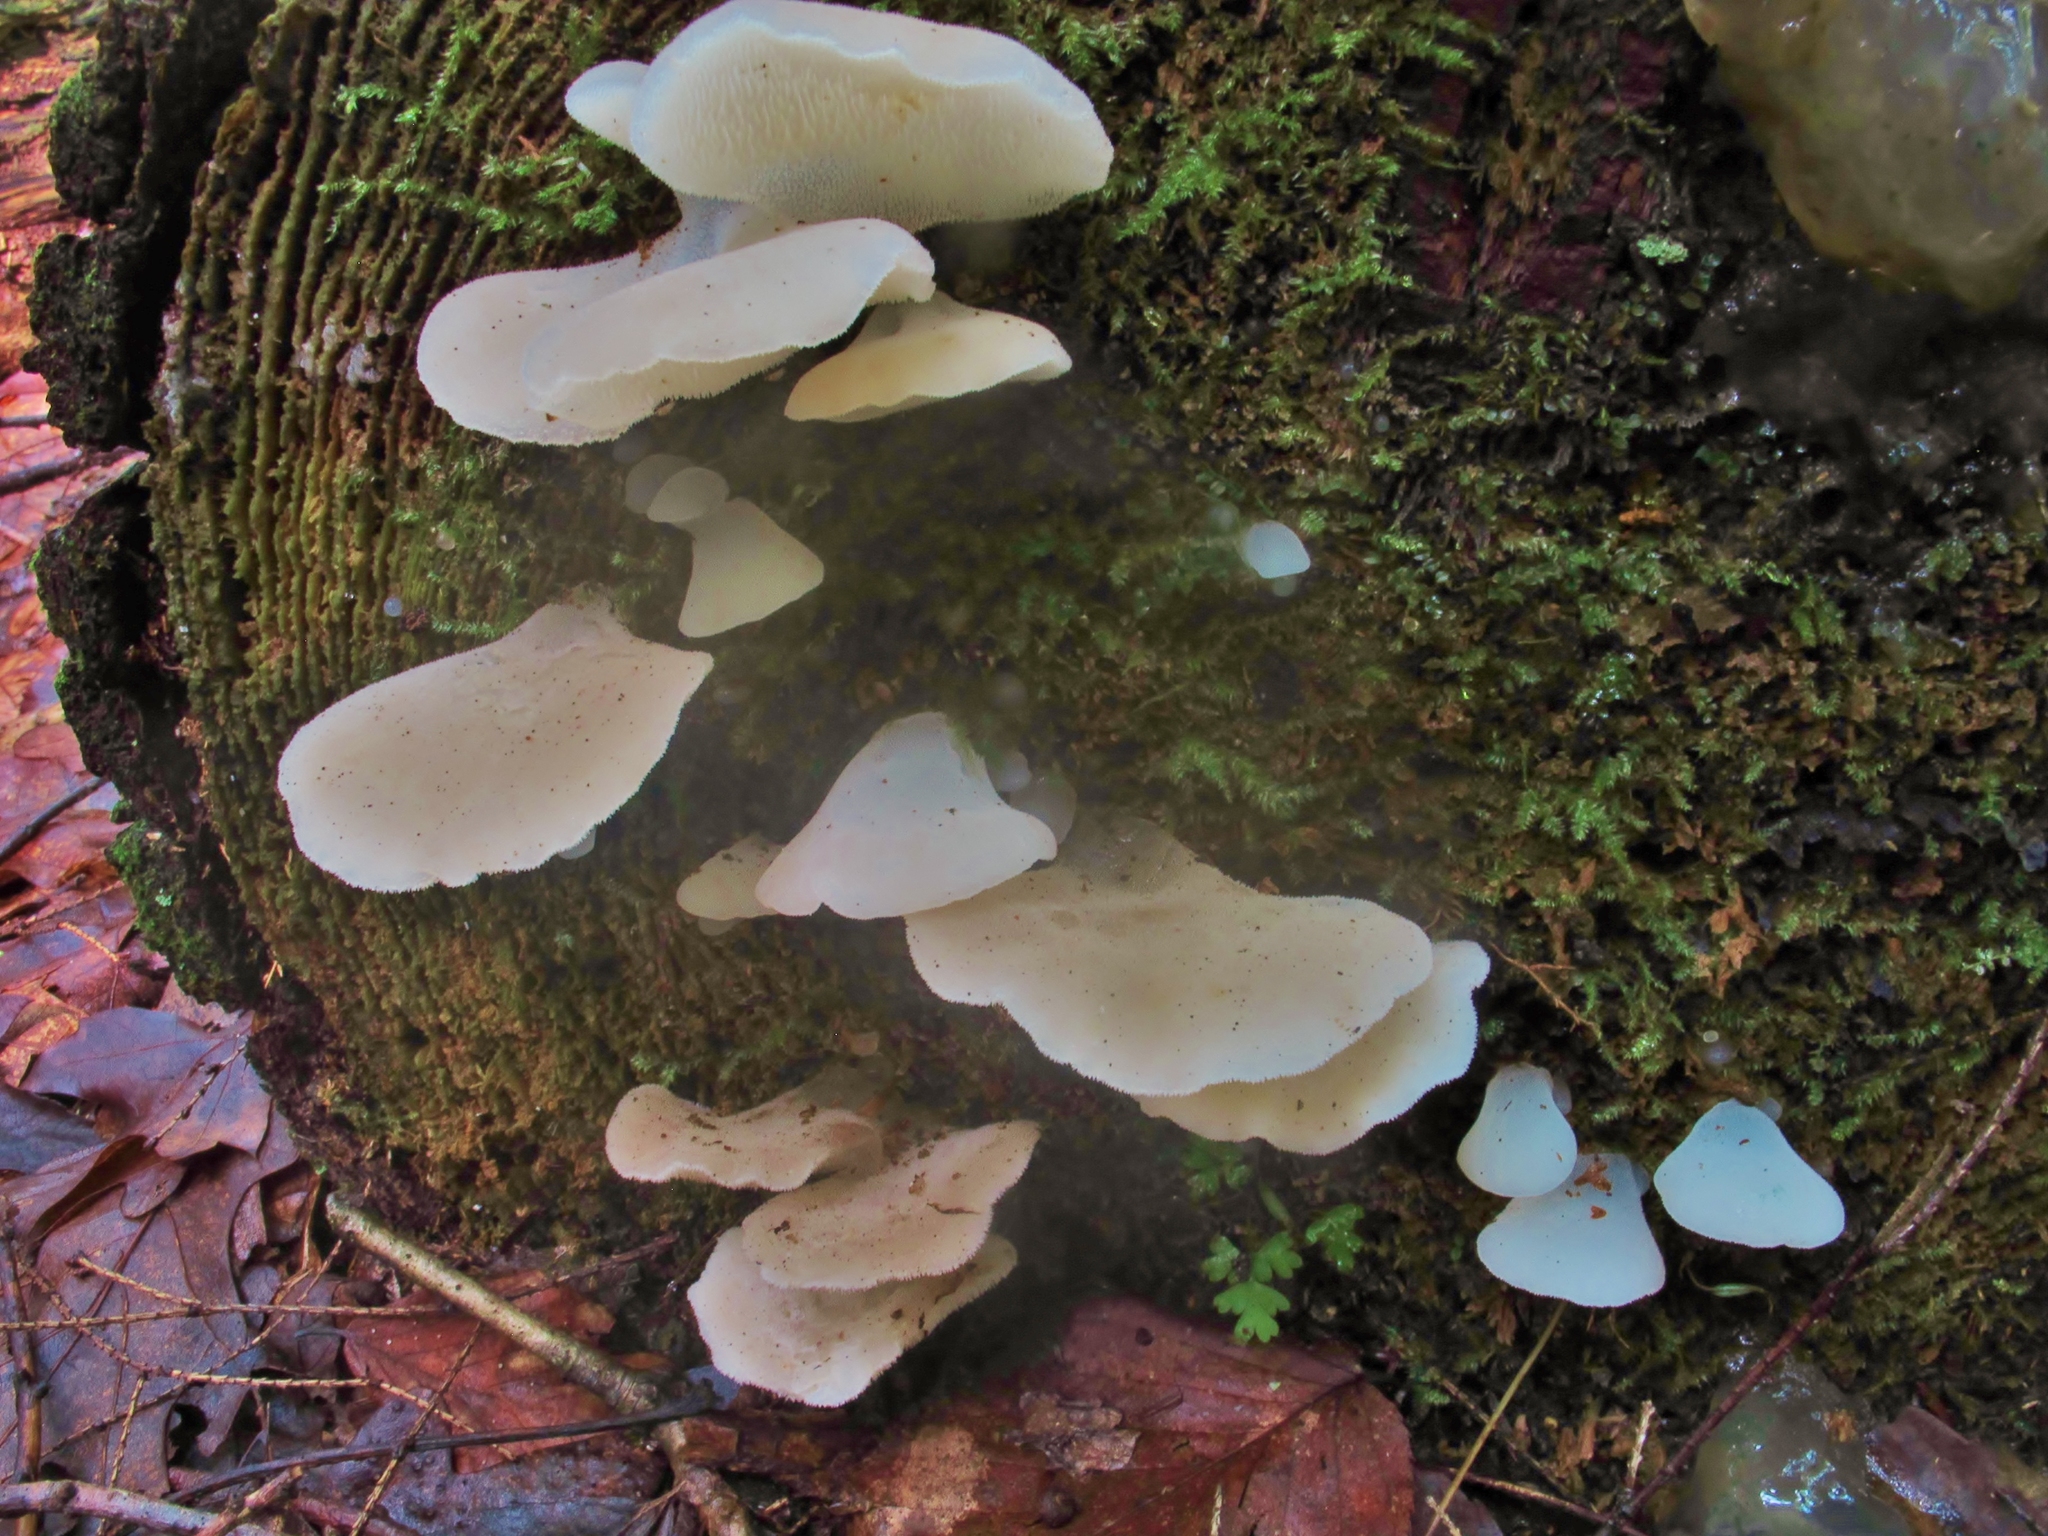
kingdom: Fungi
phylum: Basidiomycota
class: Agaricomycetes
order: Auriculariales
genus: Pseudohydnum
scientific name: Pseudohydnum gelatinosum
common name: Jelly tongue
